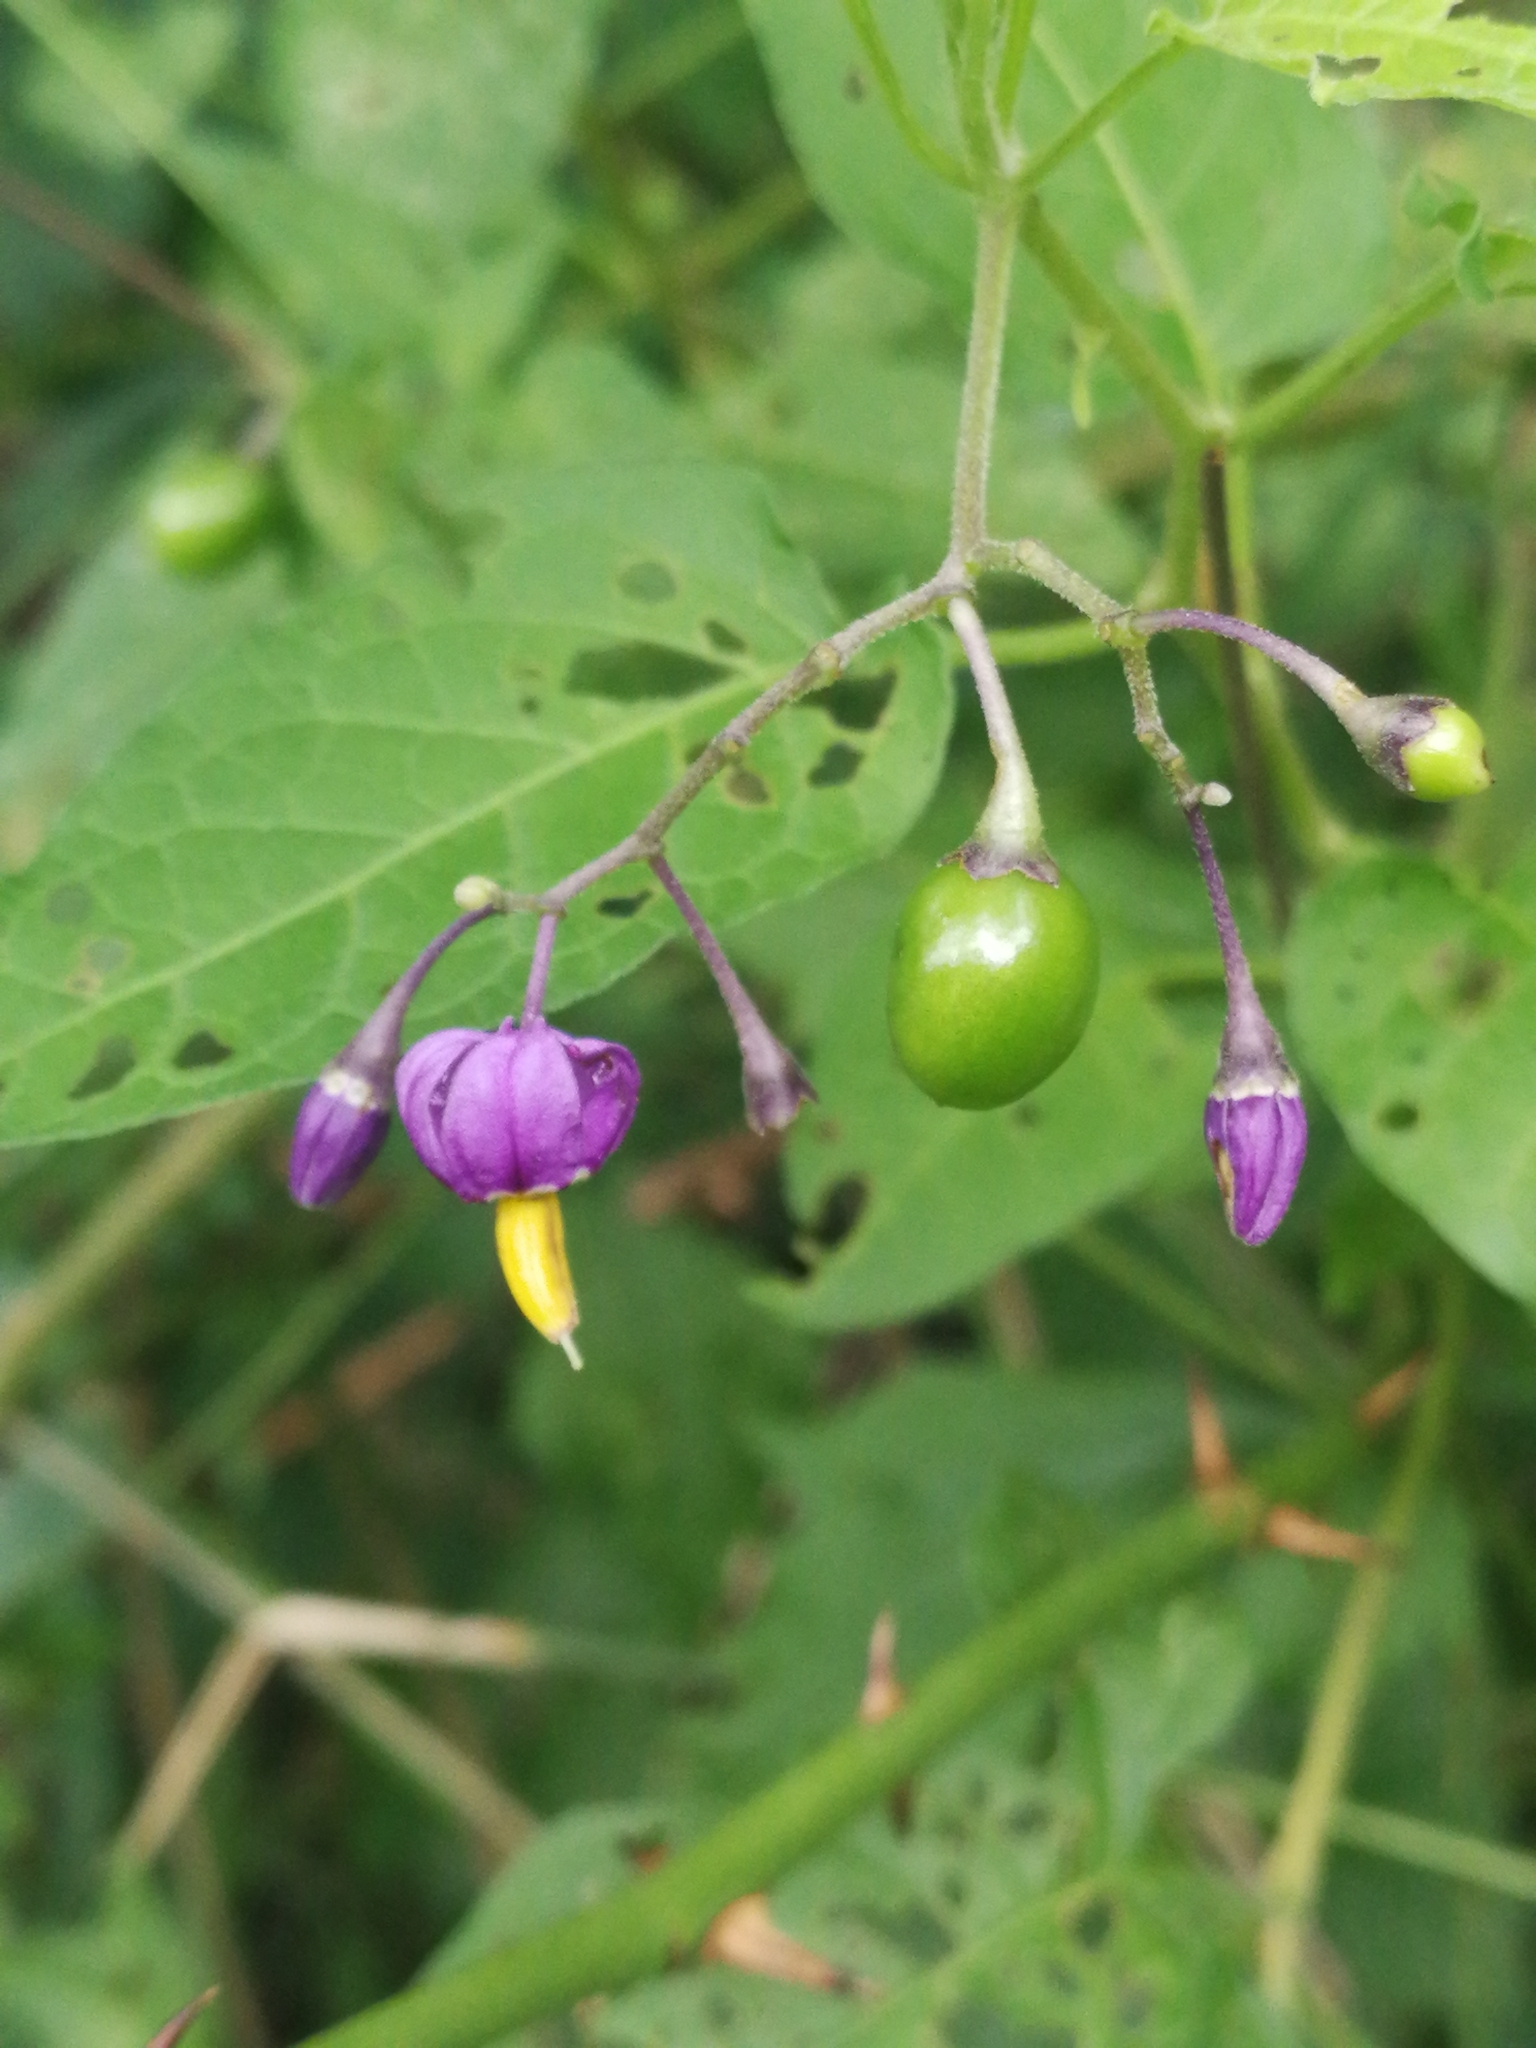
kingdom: Plantae
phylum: Tracheophyta
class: Magnoliopsida
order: Solanales
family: Solanaceae
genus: Solanum
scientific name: Solanum dulcamara
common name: Climbing nightshade
